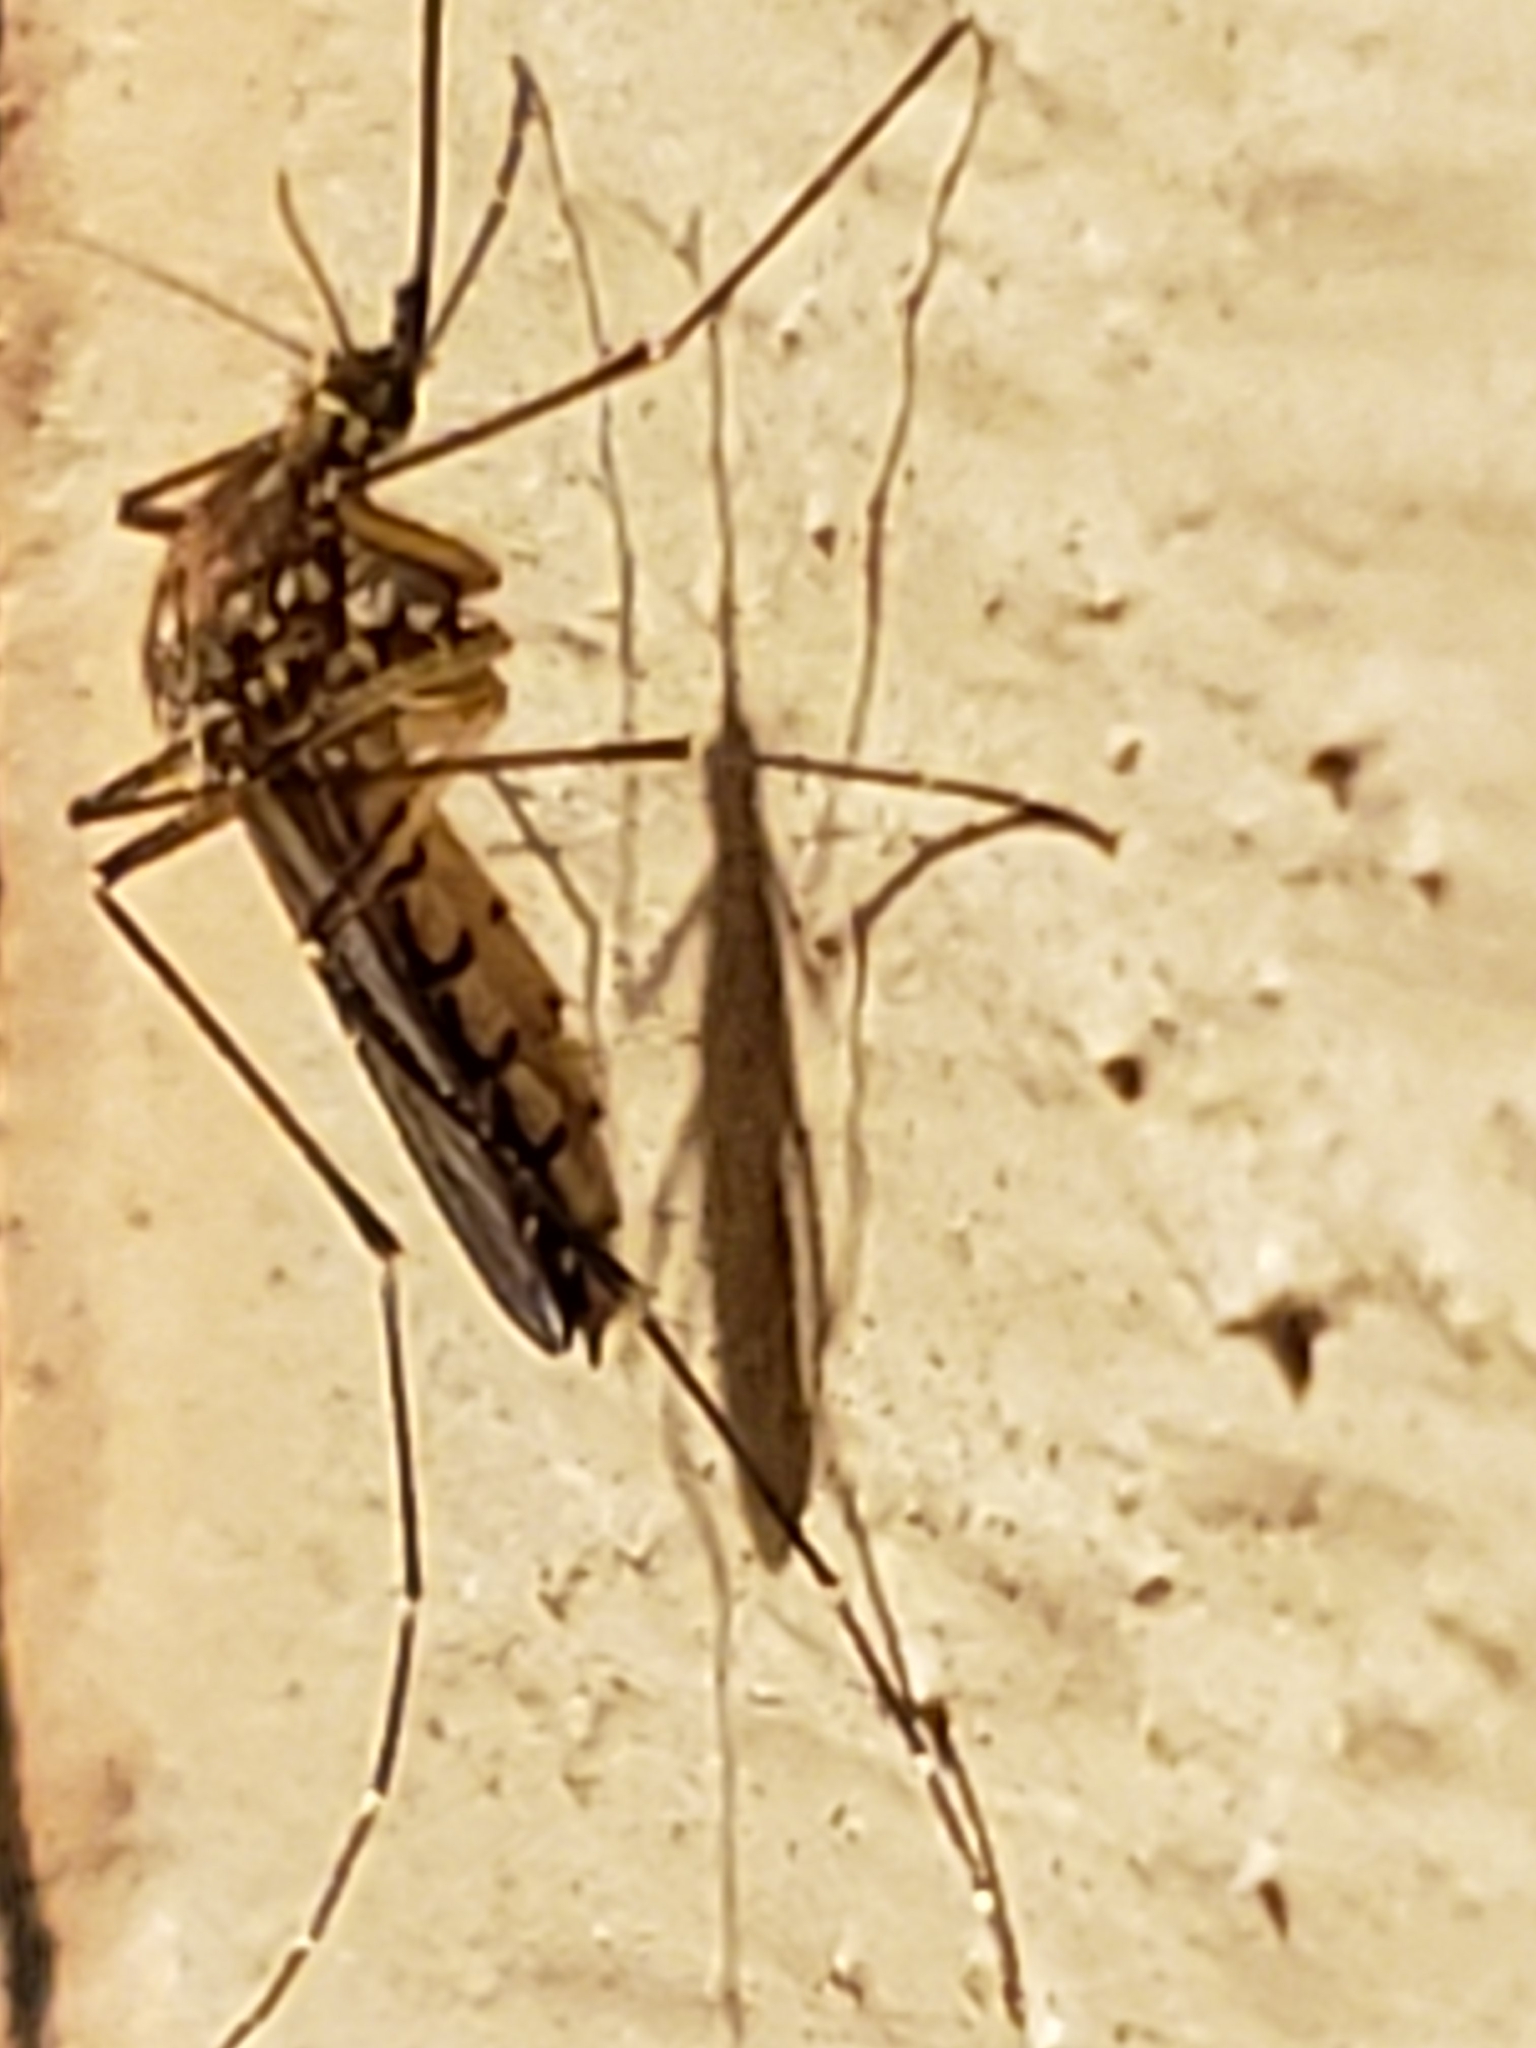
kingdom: Animalia
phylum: Arthropoda
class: Insecta
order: Diptera
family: Culicidae
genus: Aedes
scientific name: Aedes vexans
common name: Inland floodwater mosquito
